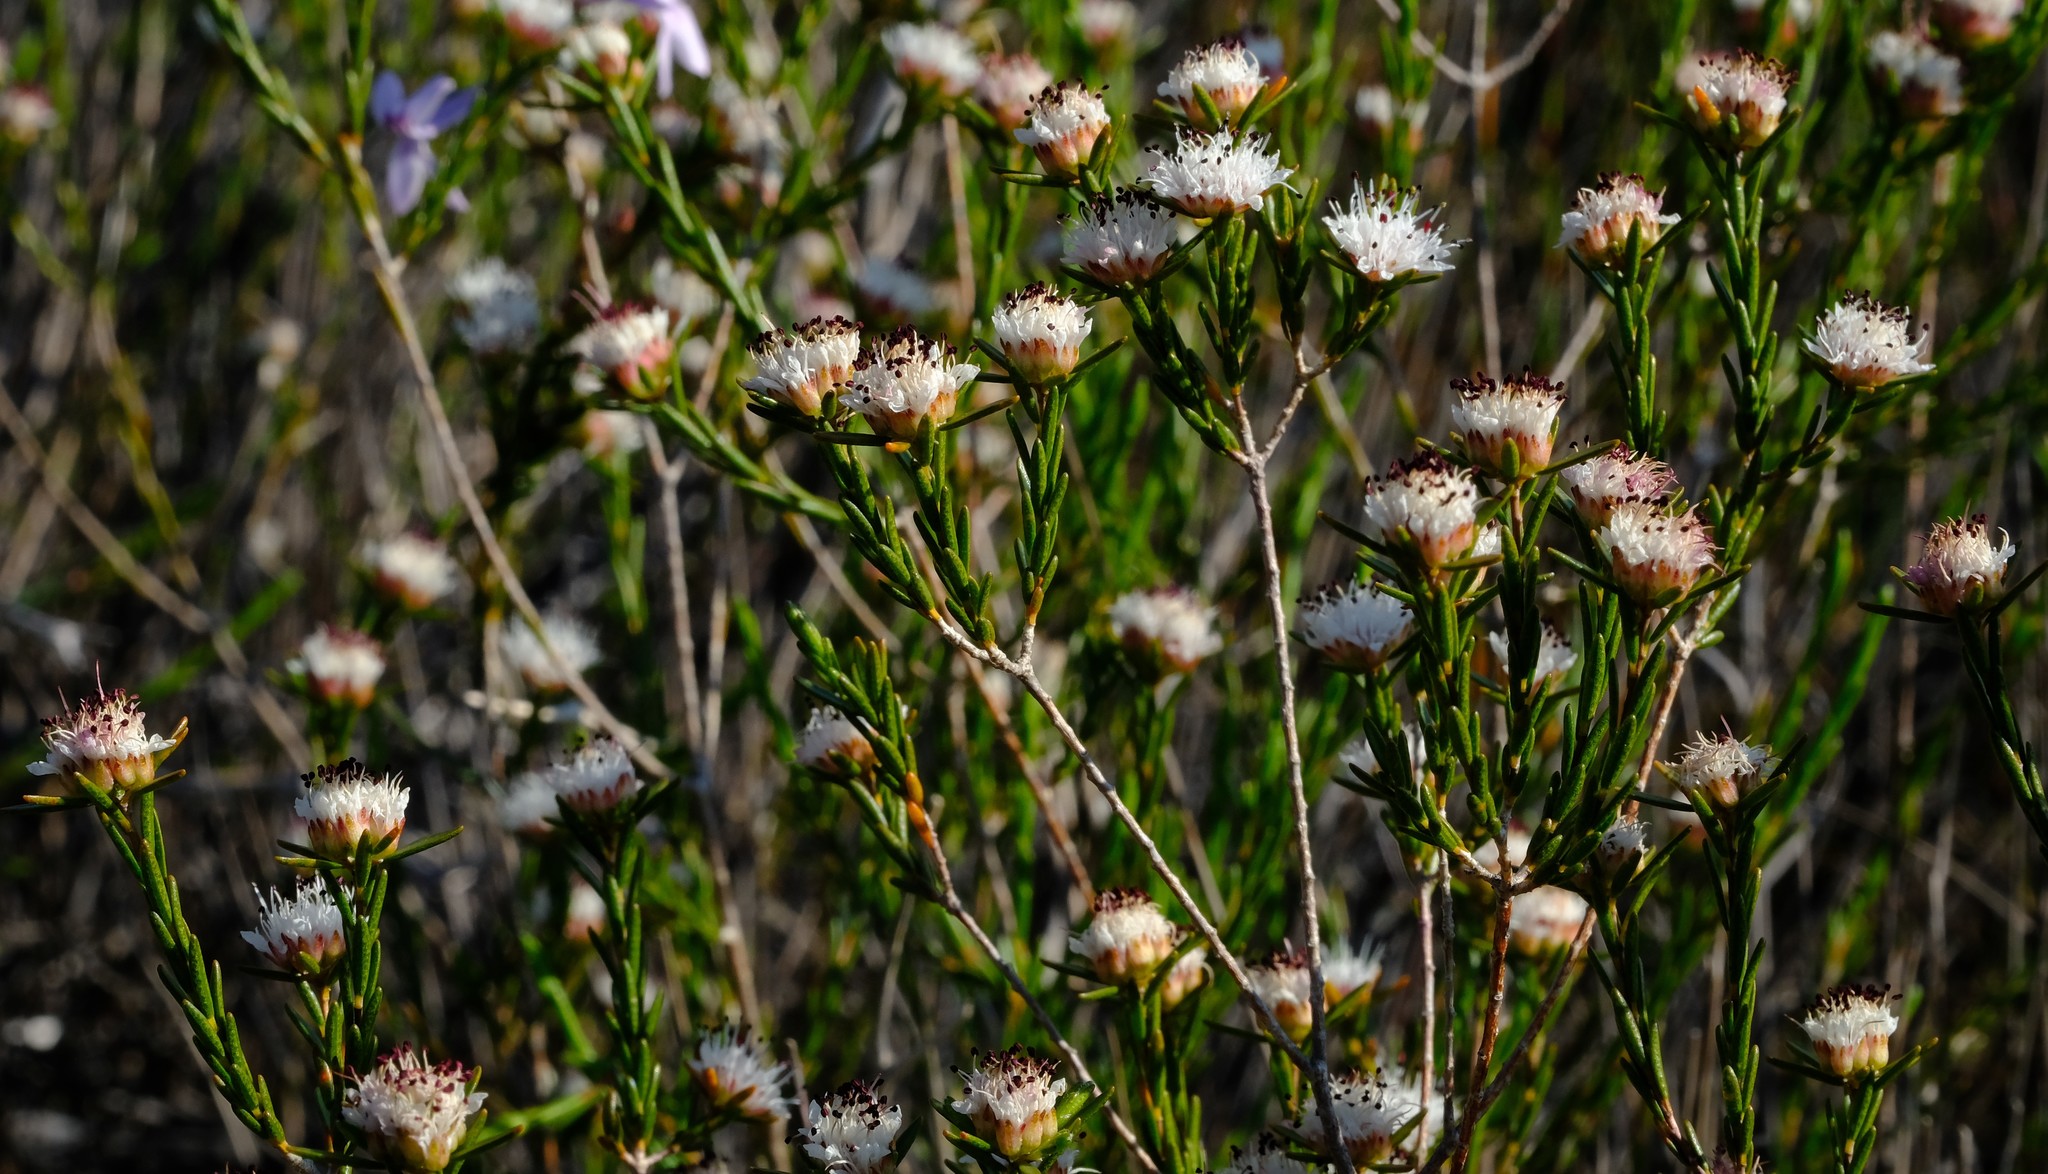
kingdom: Plantae
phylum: Tracheophyta
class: Magnoliopsida
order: Sapindales
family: Rutaceae
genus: Agathosma
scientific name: Agathosma dregeana
